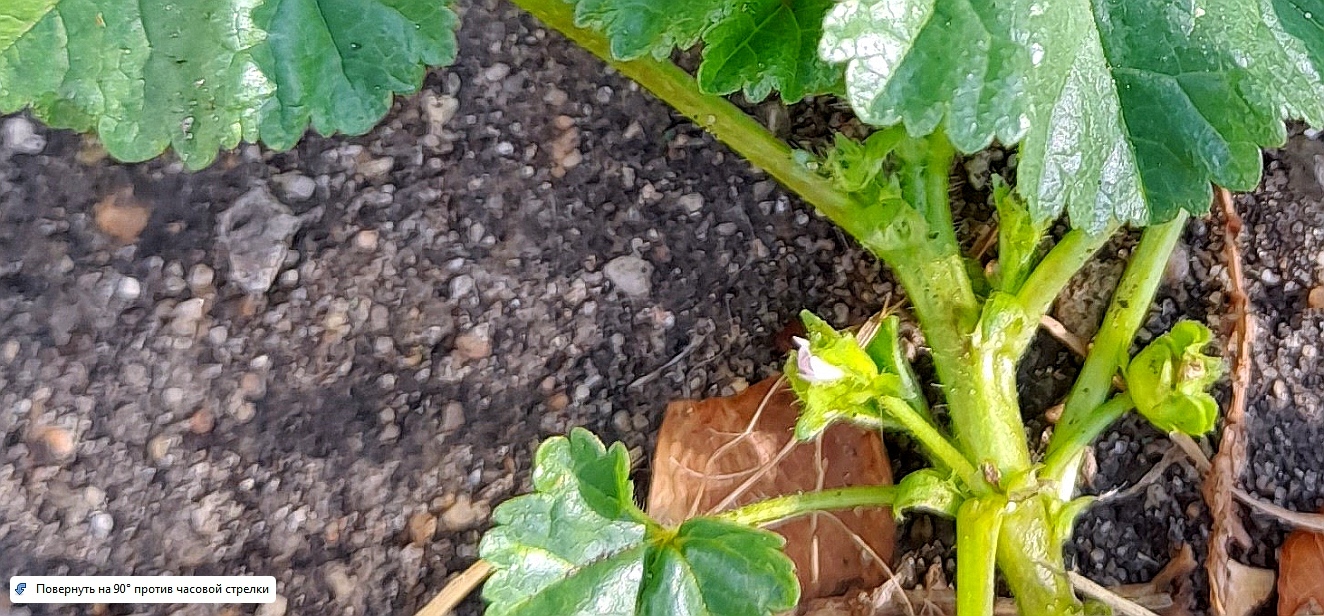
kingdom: Plantae
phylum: Tracheophyta
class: Magnoliopsida
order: Malvales
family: Malvaceae
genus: Malva
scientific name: Malva pusilla
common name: Small mallow
